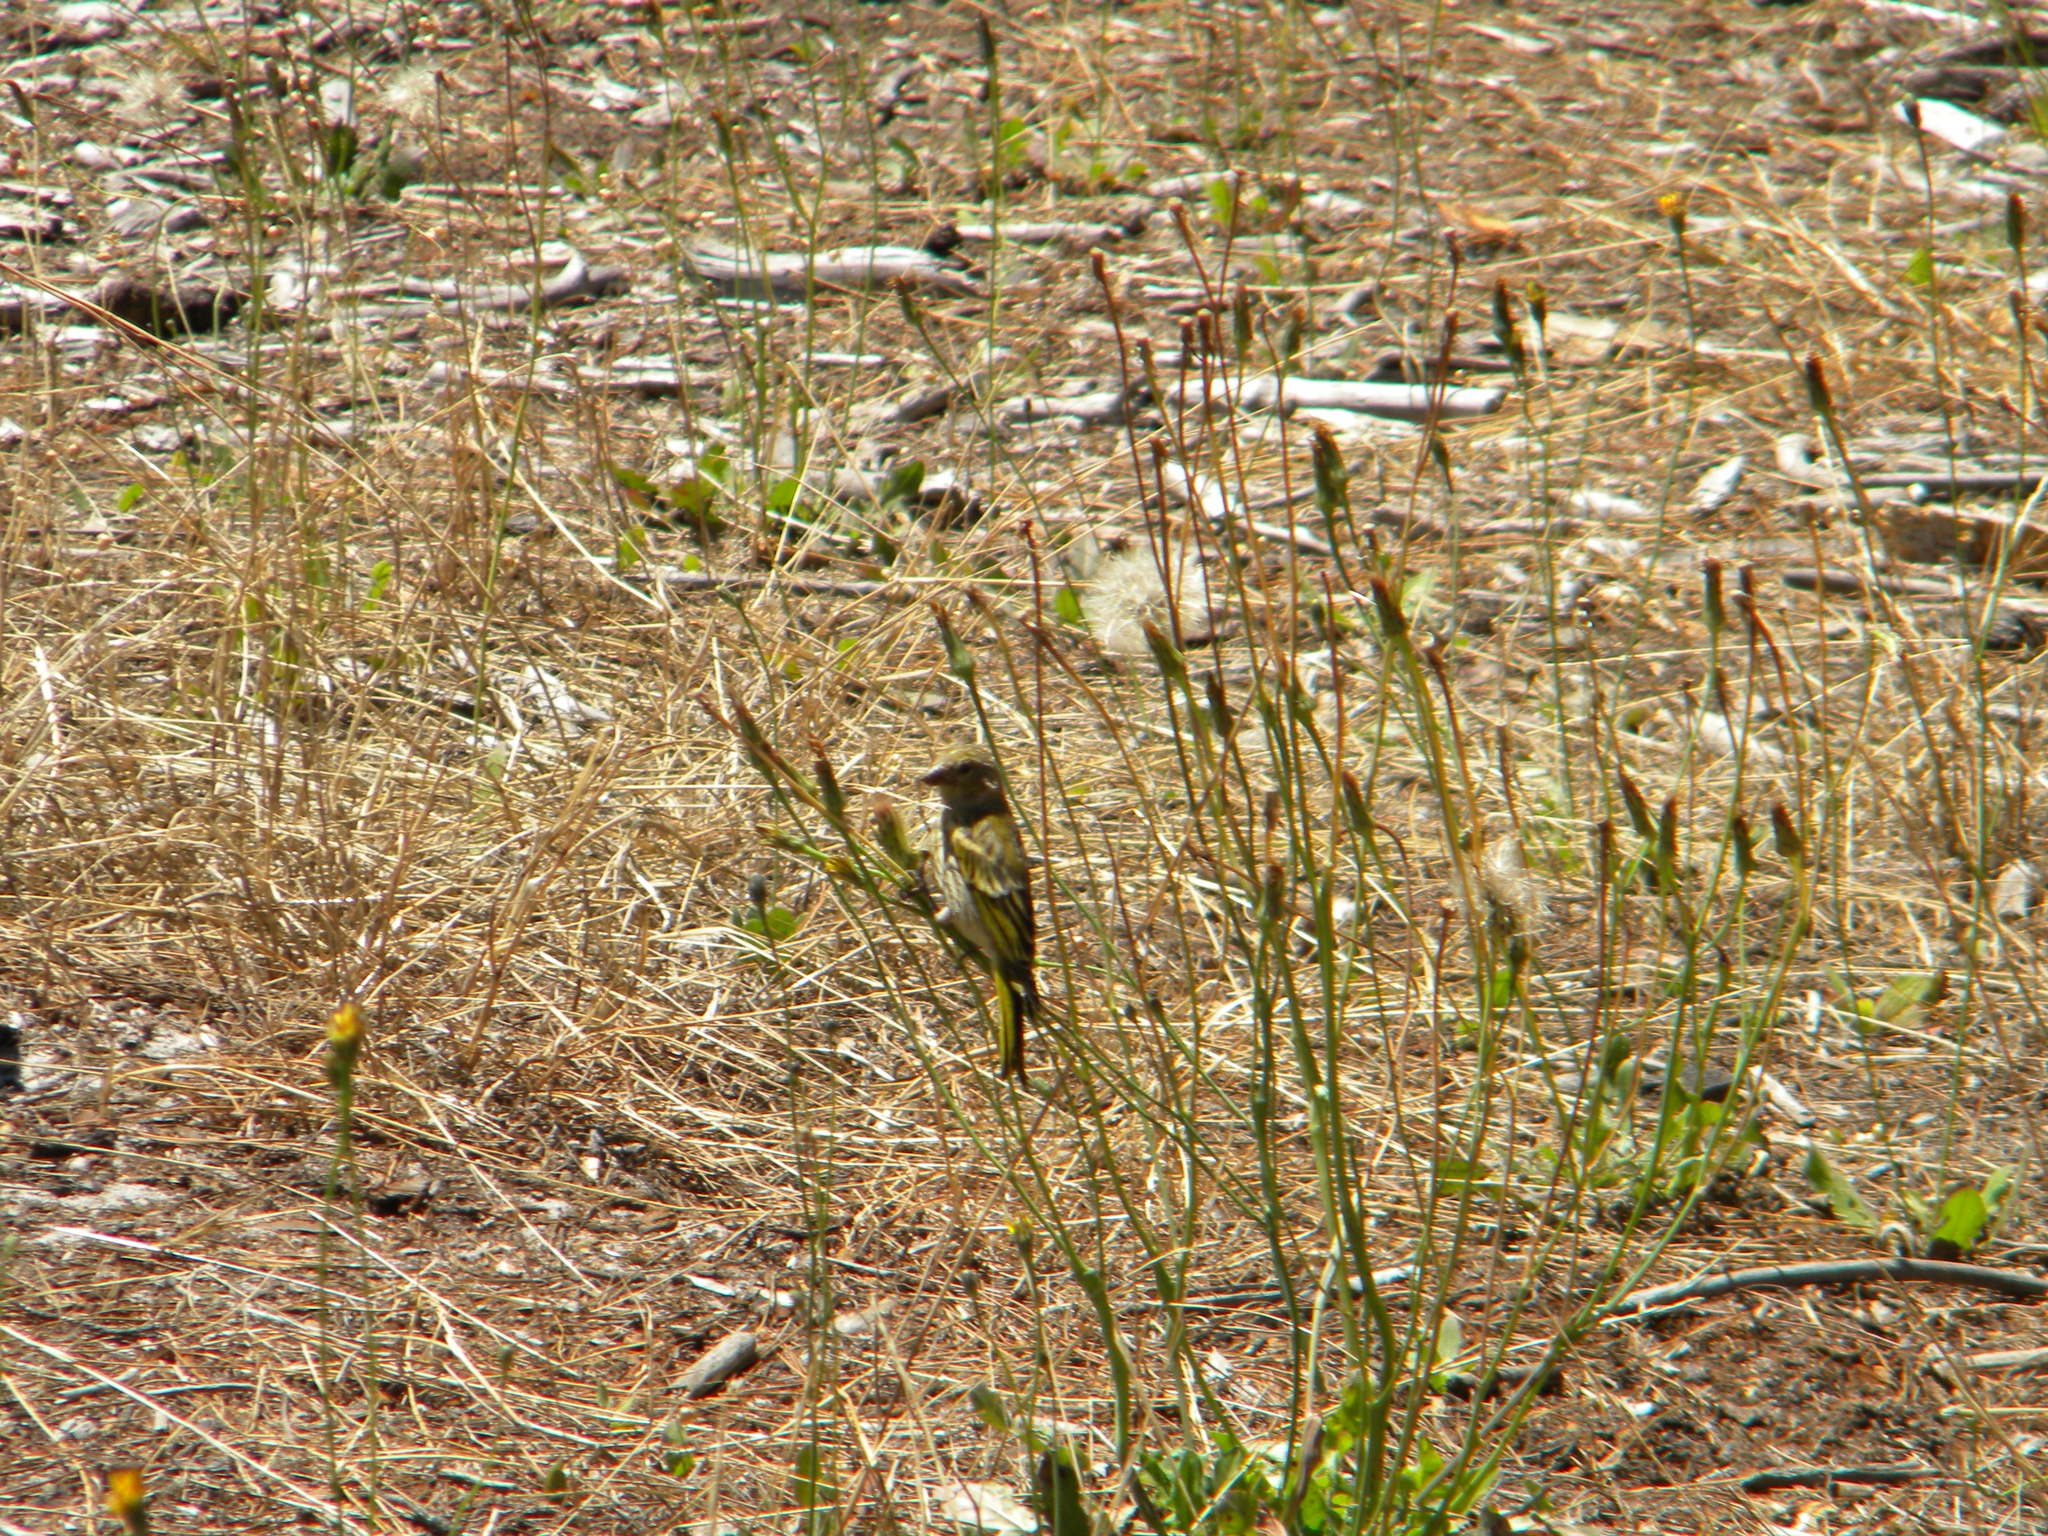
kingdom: Animalia
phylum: Chordata
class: Aves
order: Passeriformes
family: Fringillidae
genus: Serinus
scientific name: Serinus canicollis
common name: Cape canary
